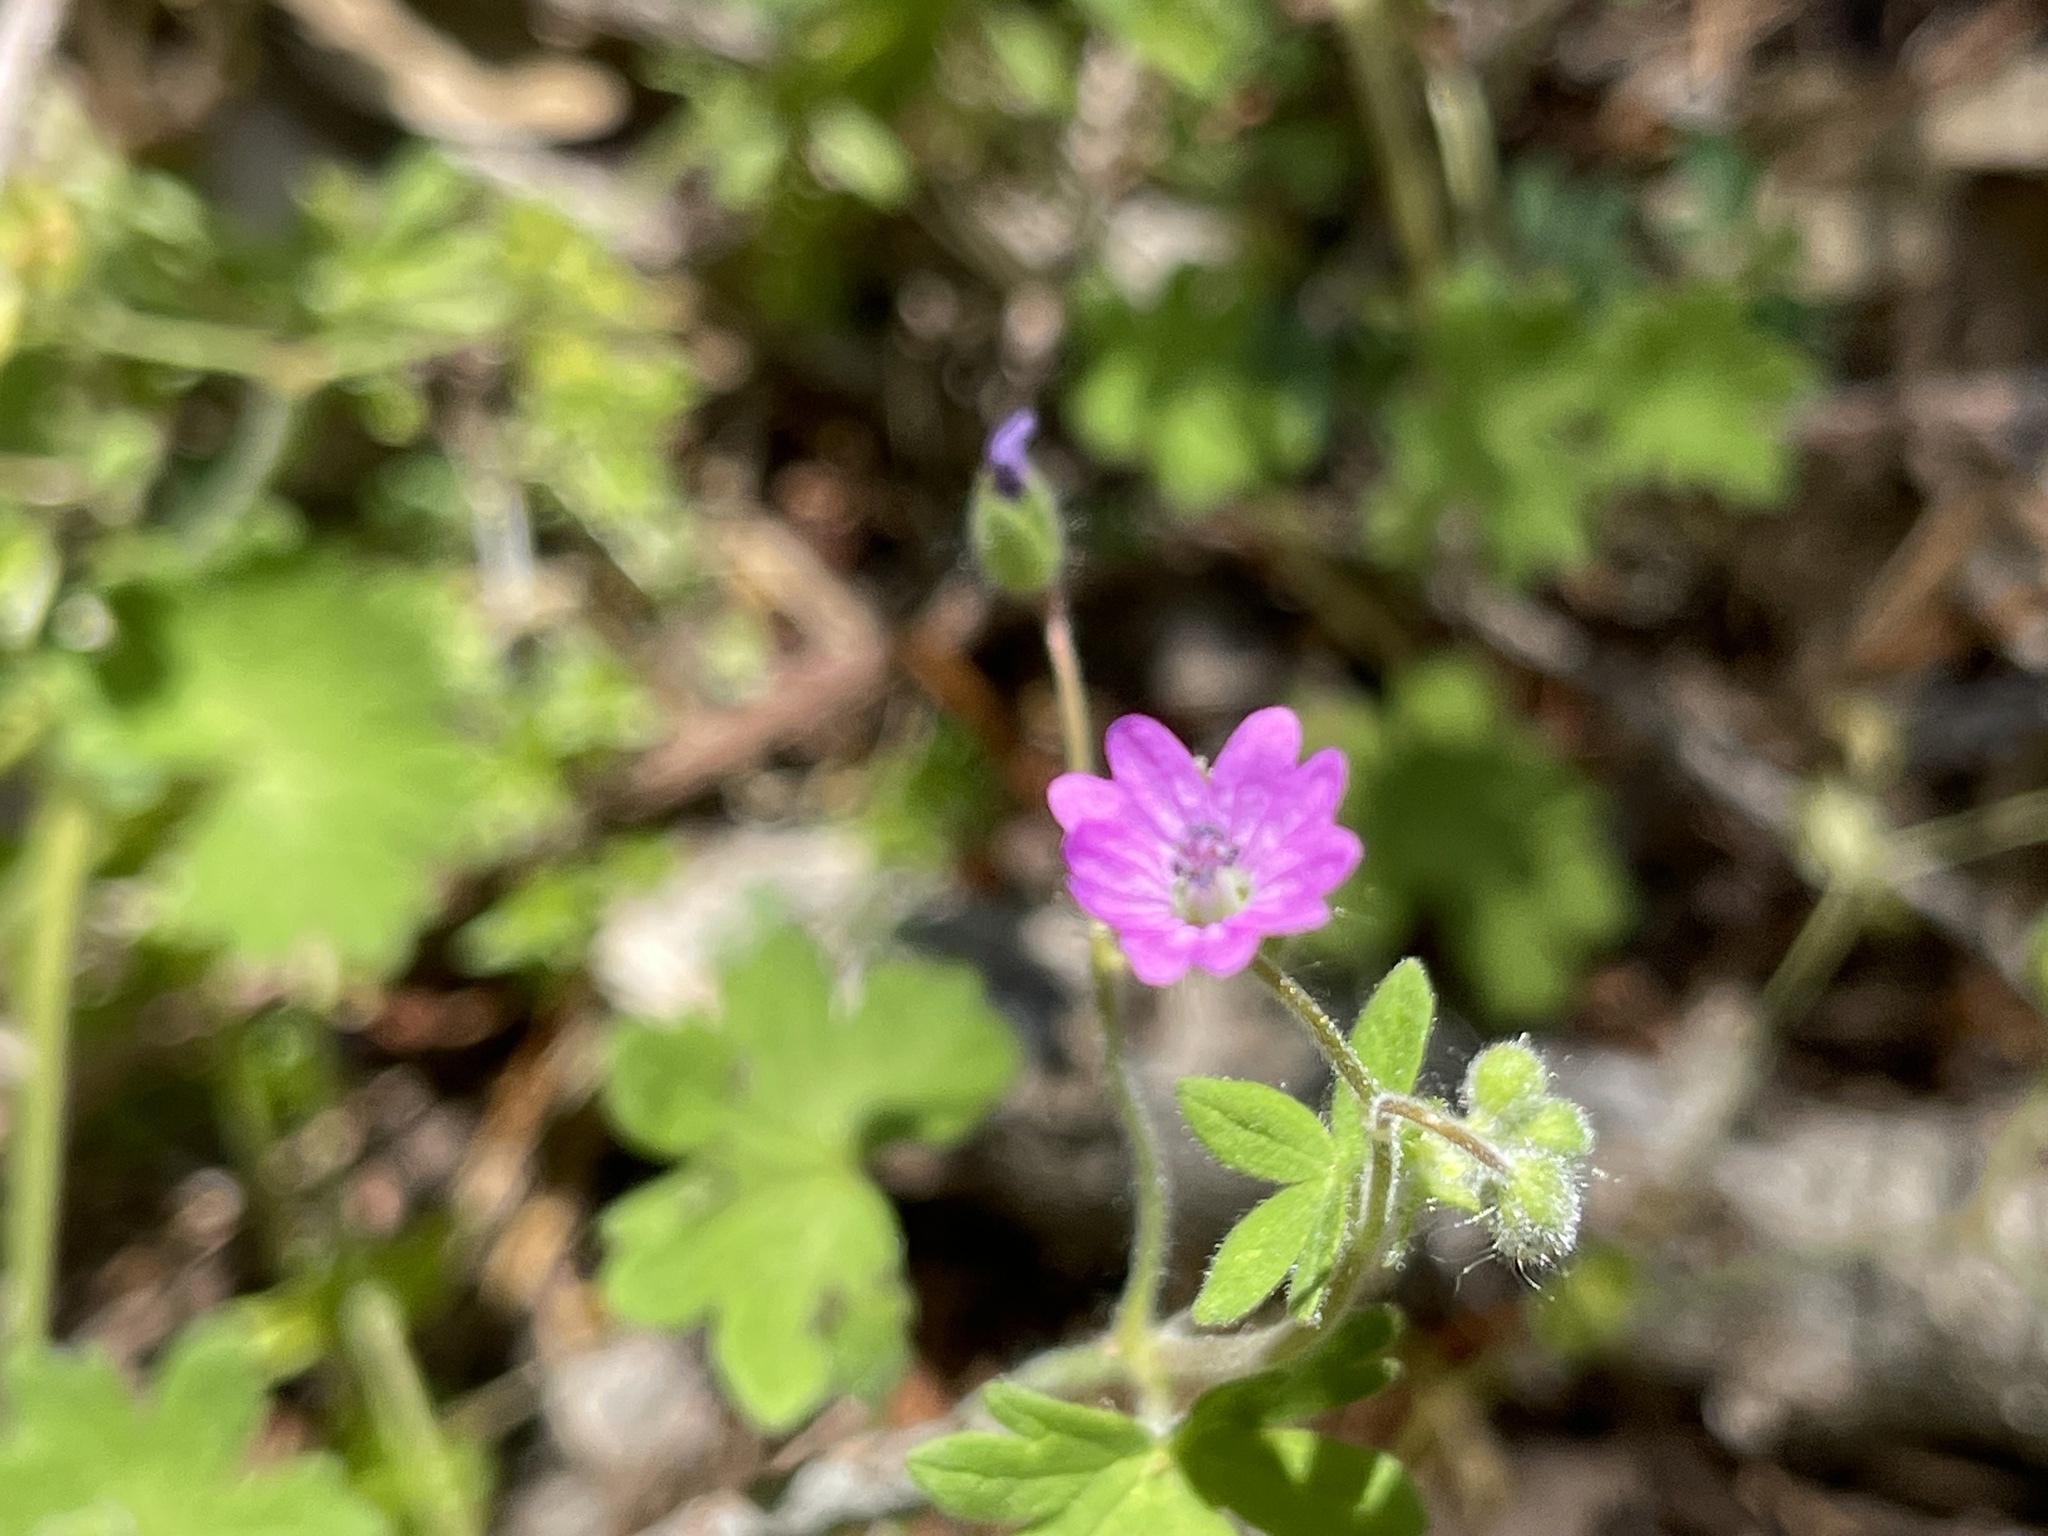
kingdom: Plantae
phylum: Tracheophyta
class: Magnoliopsida
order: Geraniales
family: Geraniaceae
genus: Geranium
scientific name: Geranium molle
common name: Dove's-foot crane's-bill
